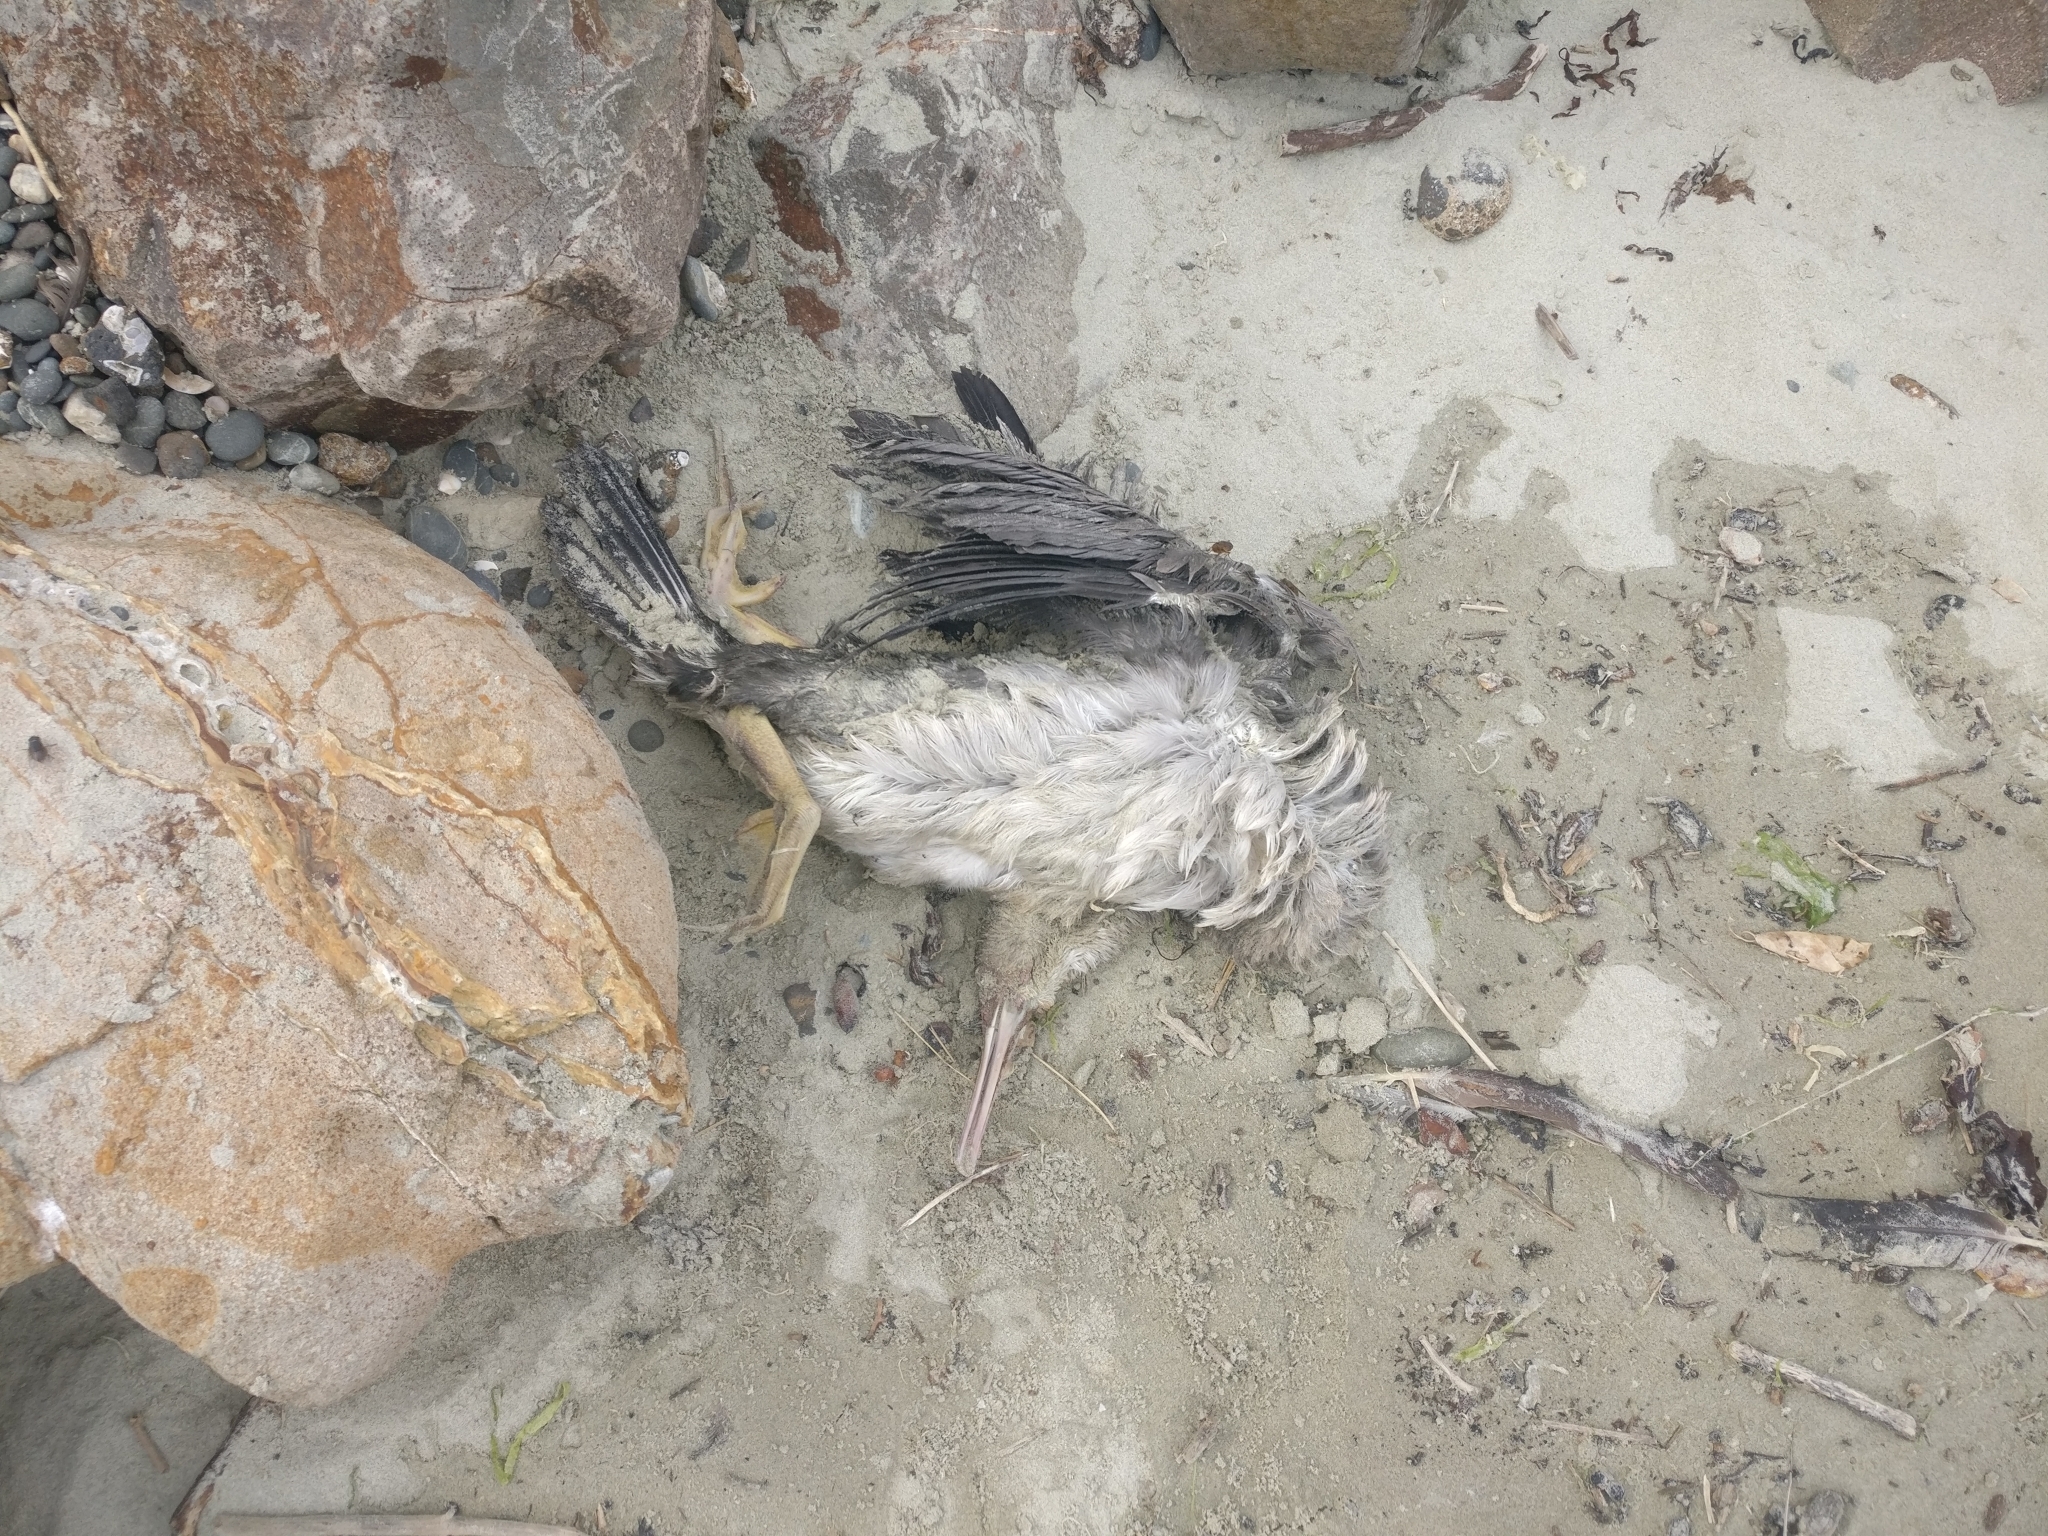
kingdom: Animalia
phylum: Chordata
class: Aves
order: Suliformes
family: Phalacrocoracidae
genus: Phalacrocorax
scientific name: Phalacrocorax punctatus
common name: Spotted shag
